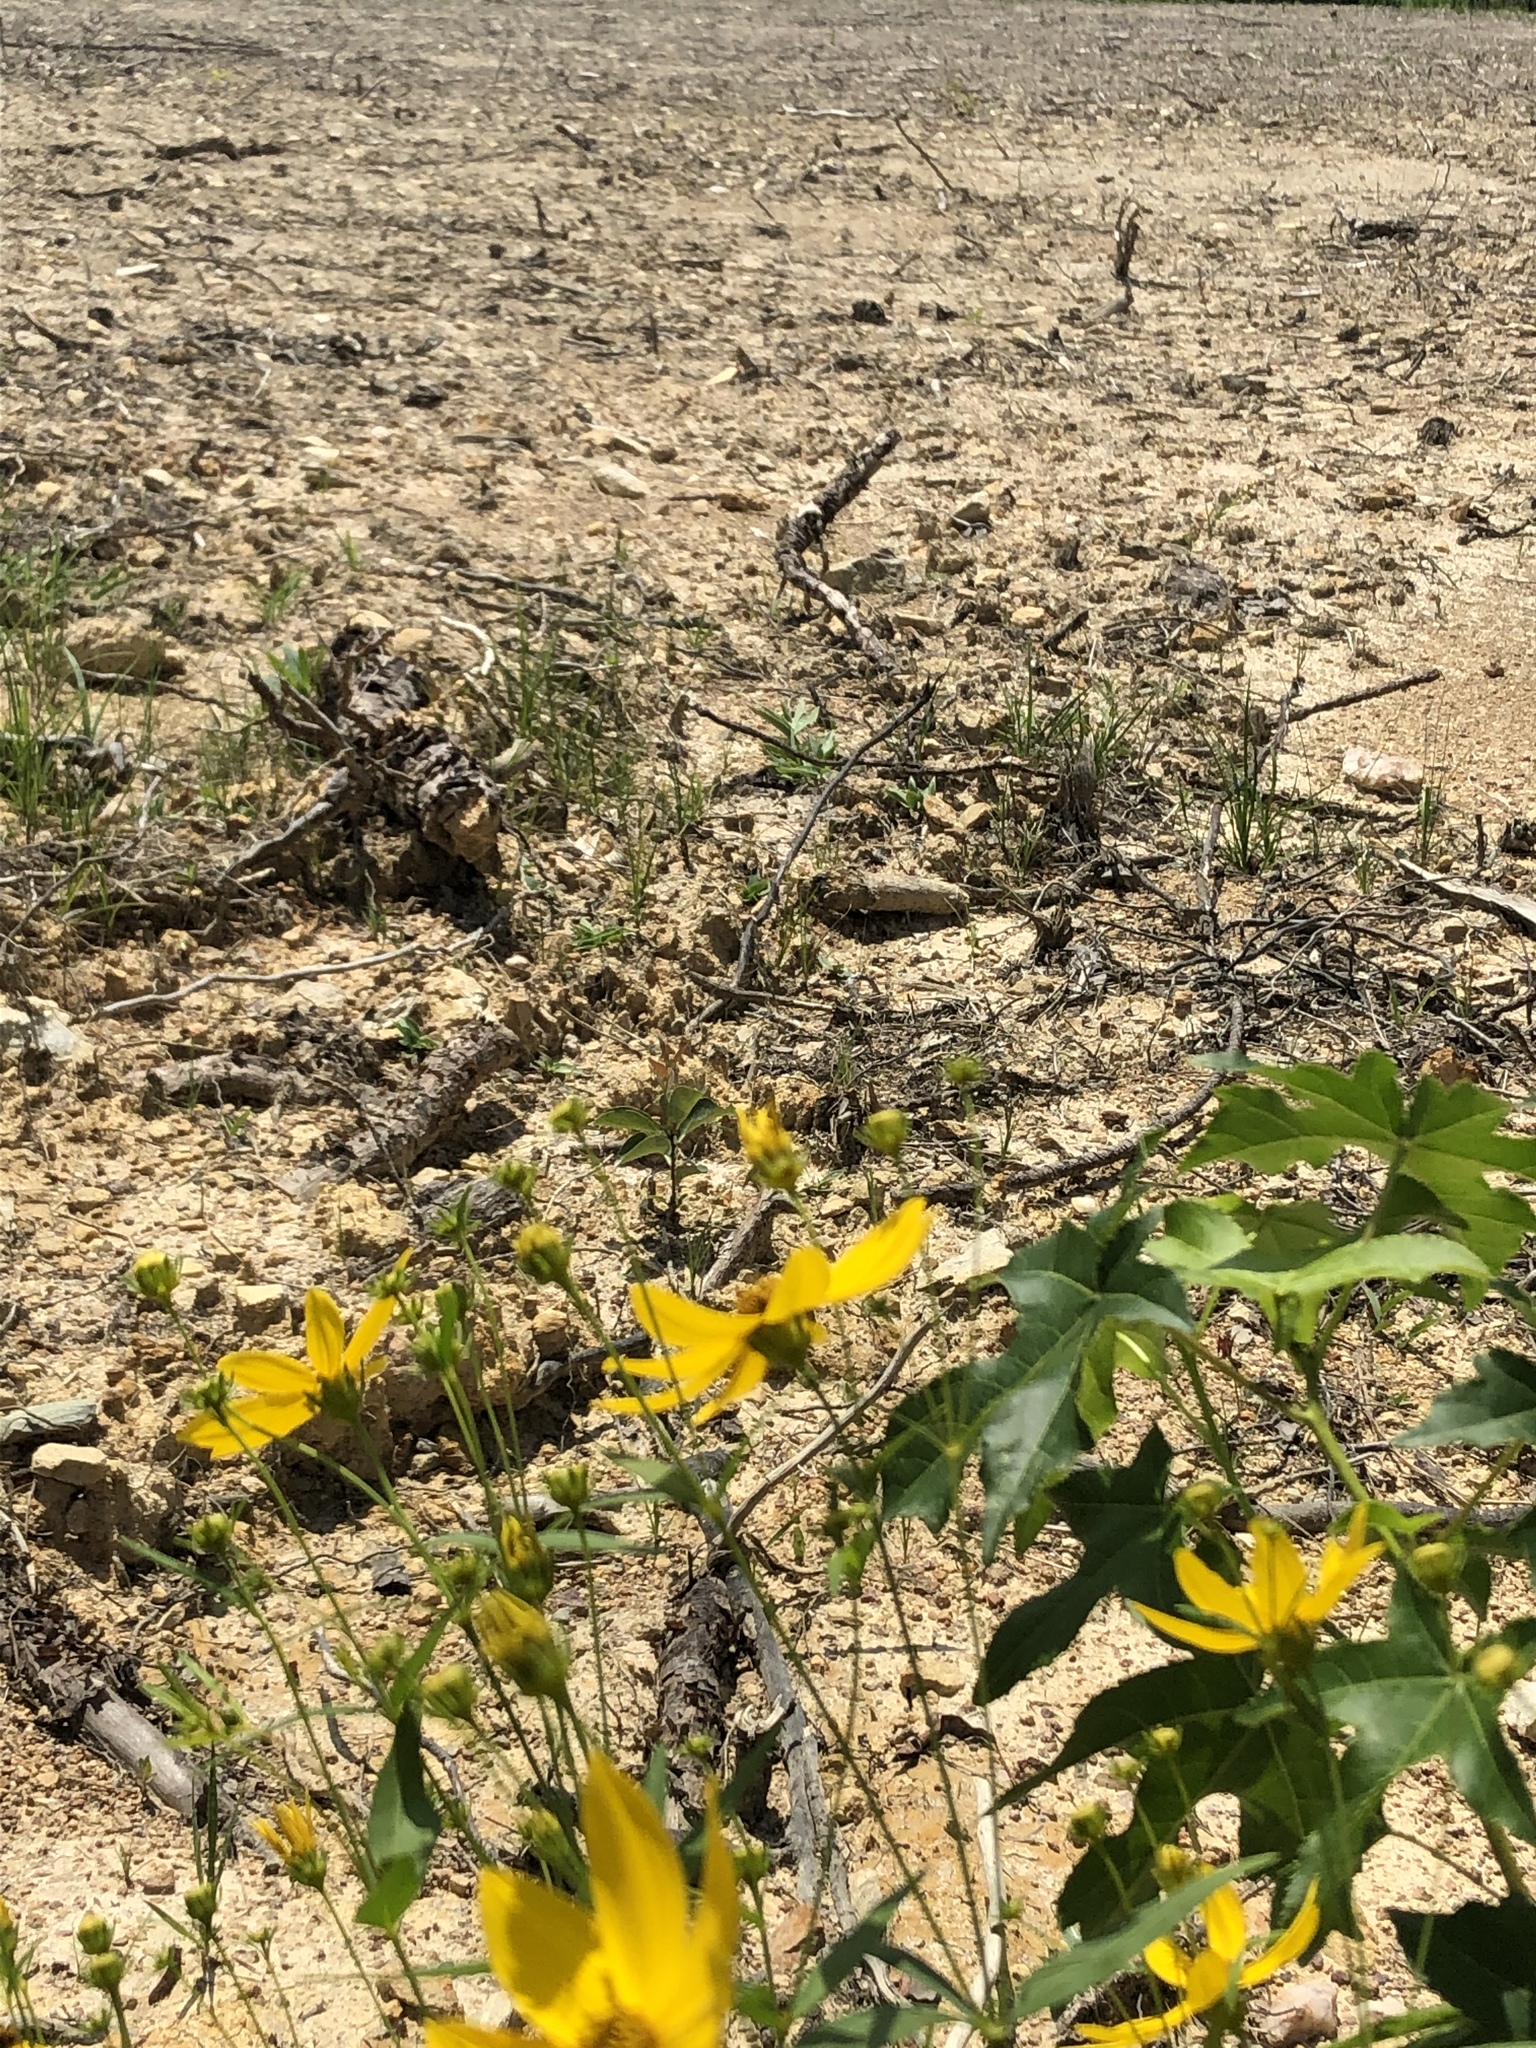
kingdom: Plantae
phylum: Tracheophyta
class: Magnoliopsida
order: Asterales
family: Asteraceae
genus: Coreopsis
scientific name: Coreopsis major
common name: Forest tickseed
